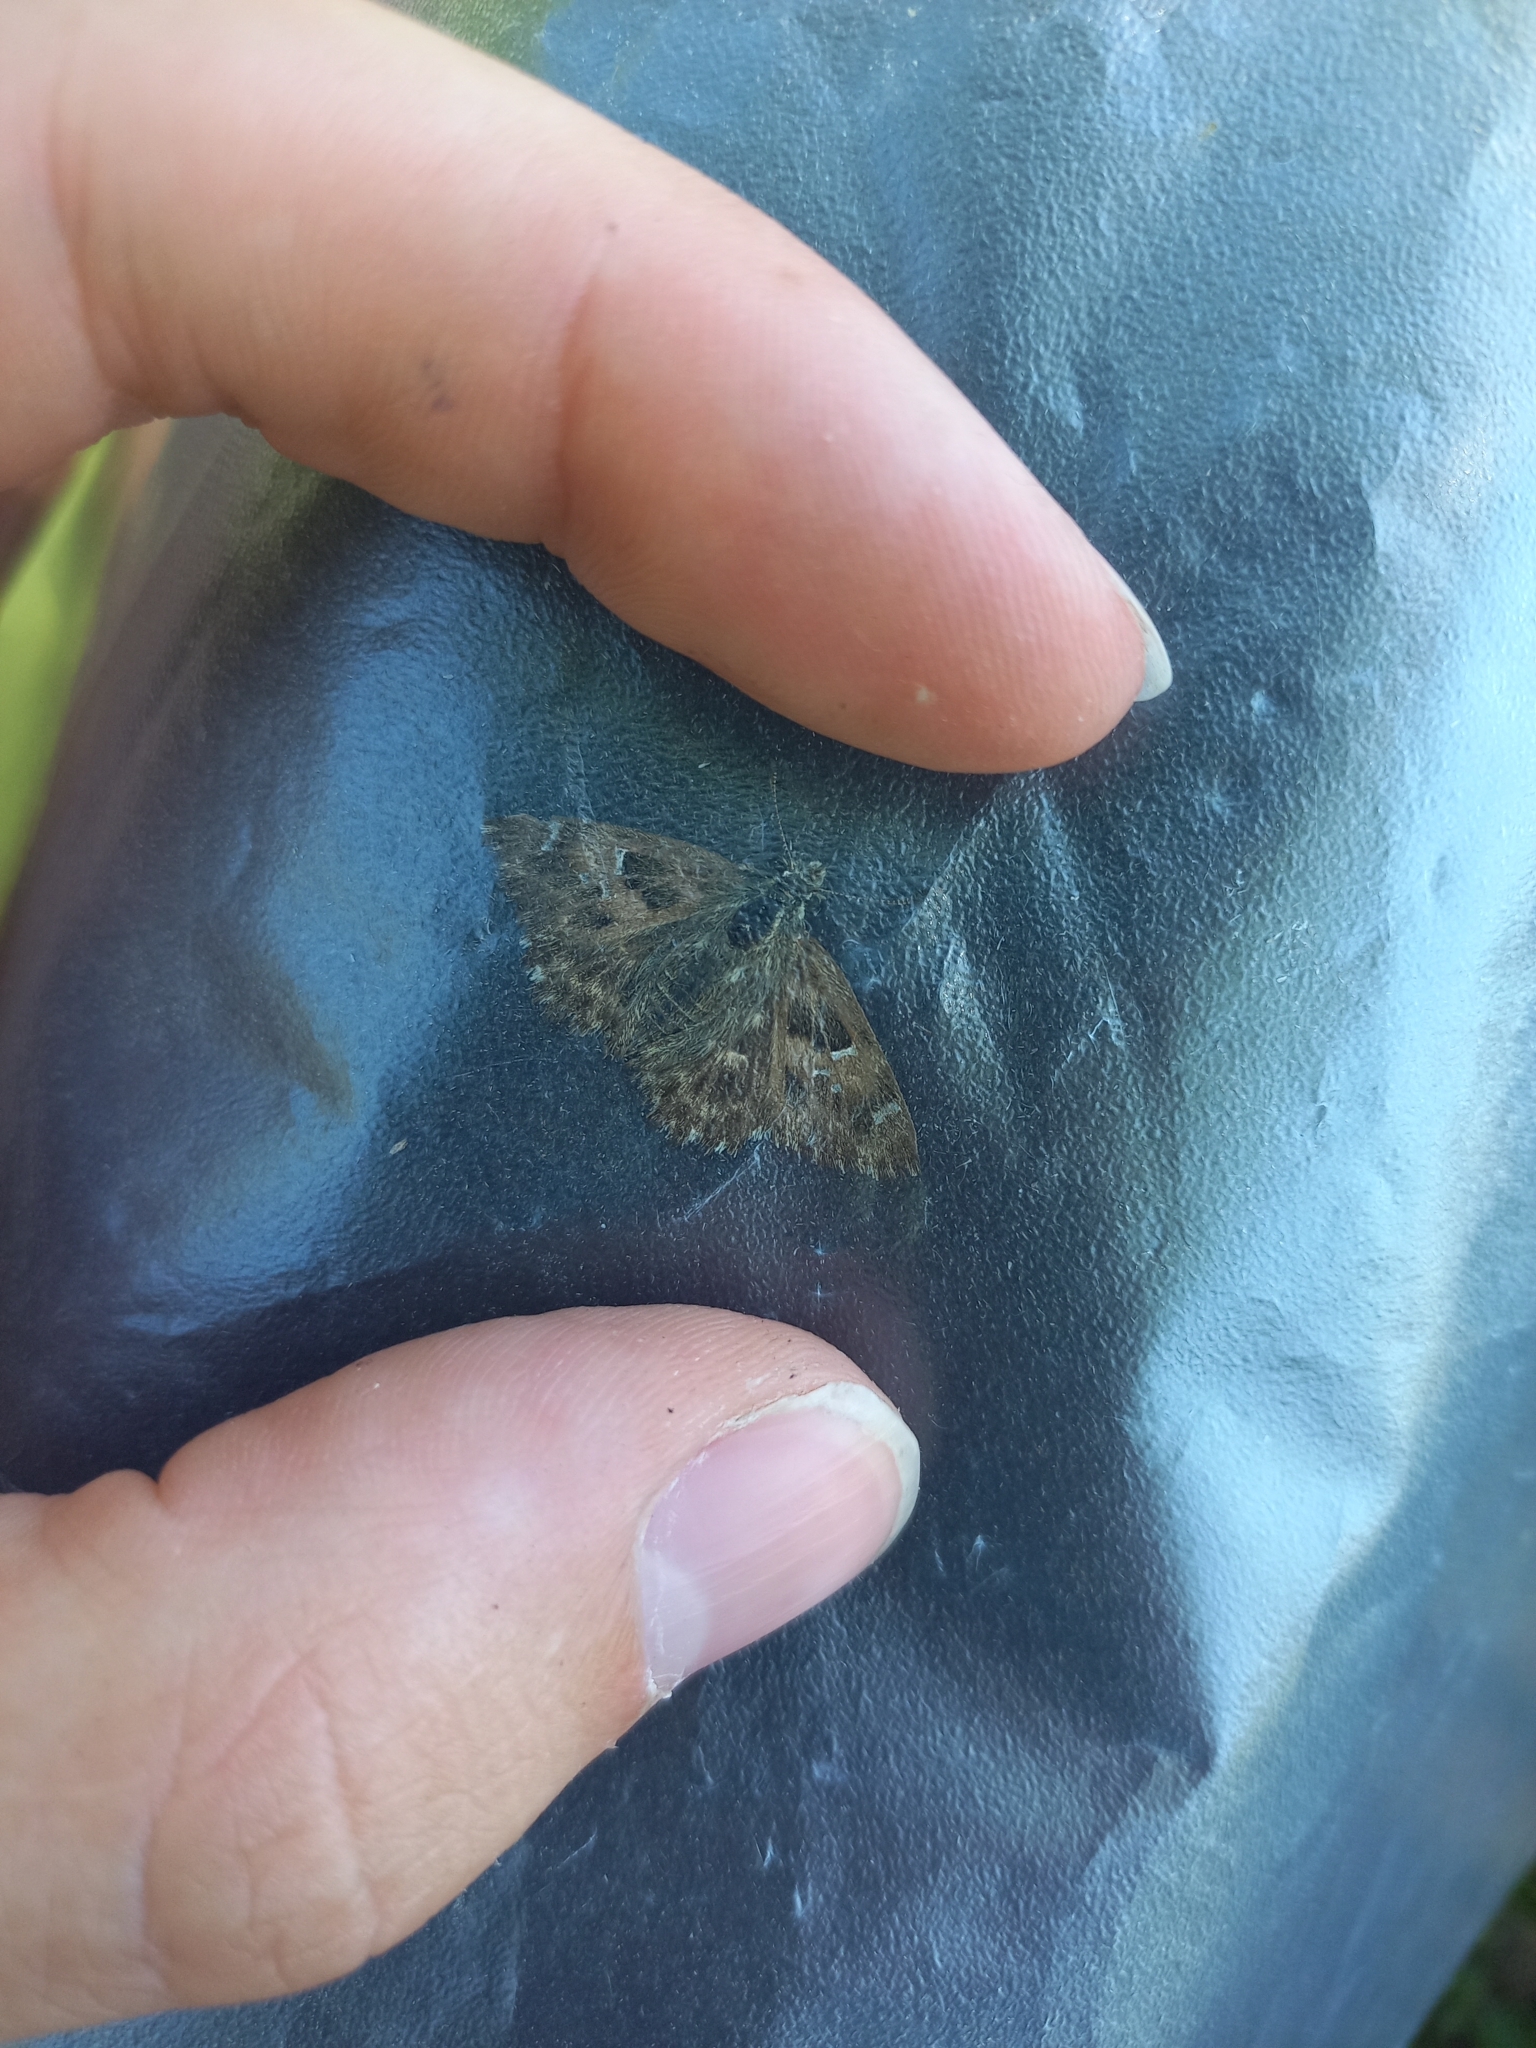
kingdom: Animalia
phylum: Arthropoda
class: Insecta
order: Lepidoptera
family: Hesperiidae
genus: Carcharodus
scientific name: Carcharodus alceae
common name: Mallow skipper
